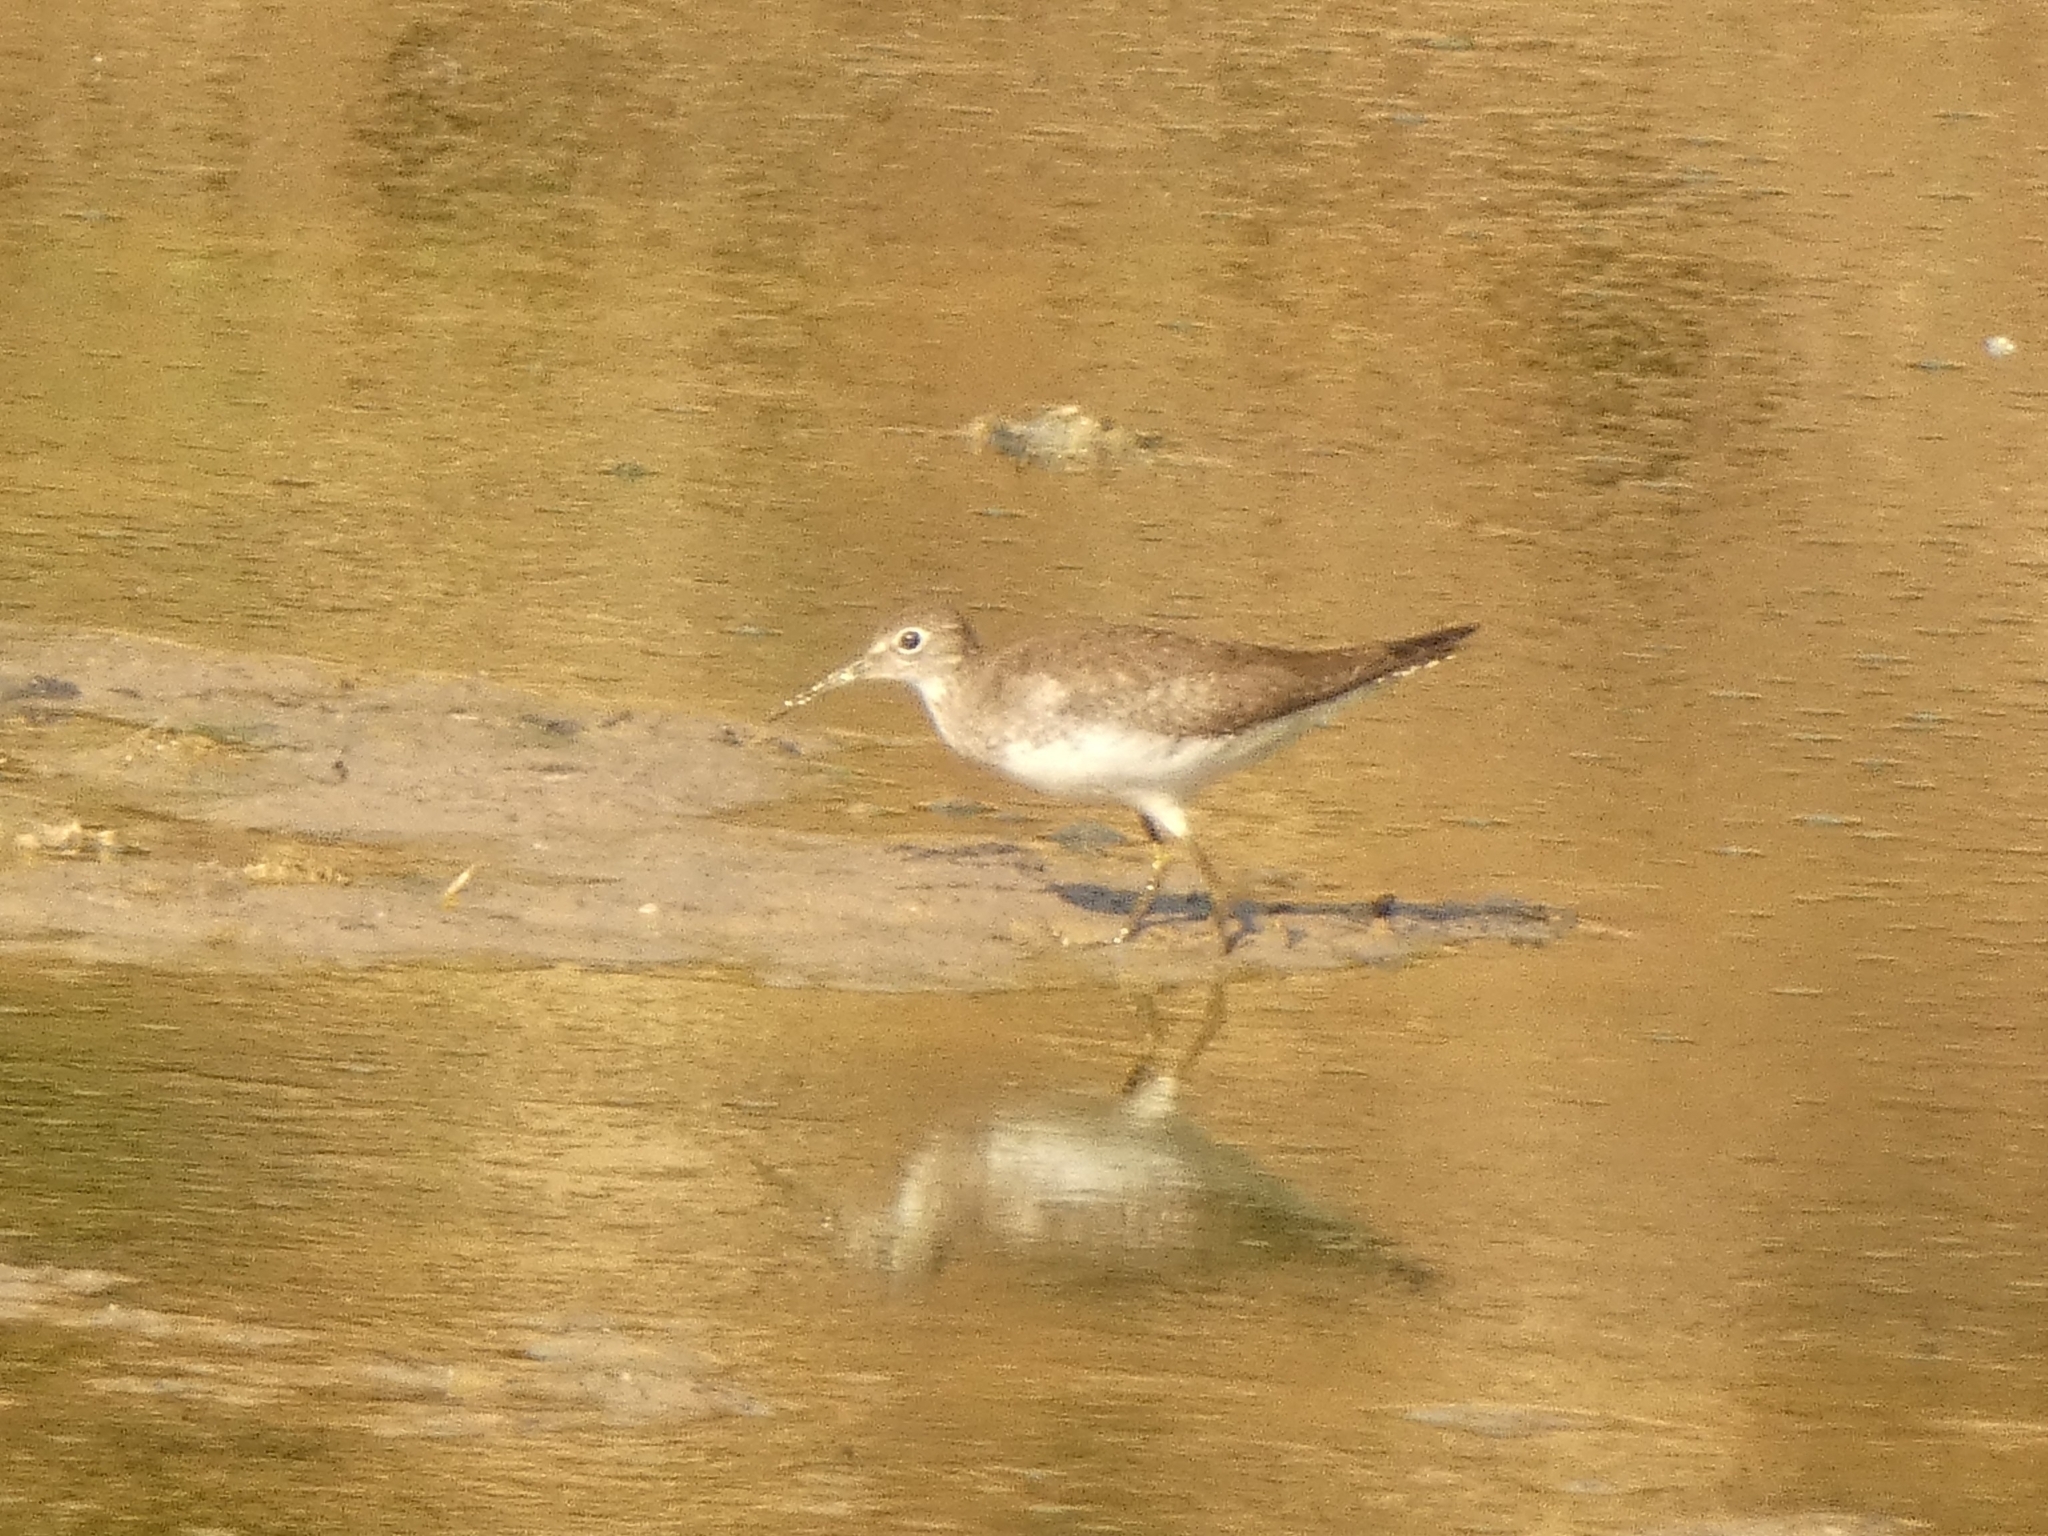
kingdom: Animalia
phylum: Chordata
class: Aves
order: Charadriiformes
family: Scolopacidae
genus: Tringa
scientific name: Tringa solitaria
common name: Solitary sandpiper
